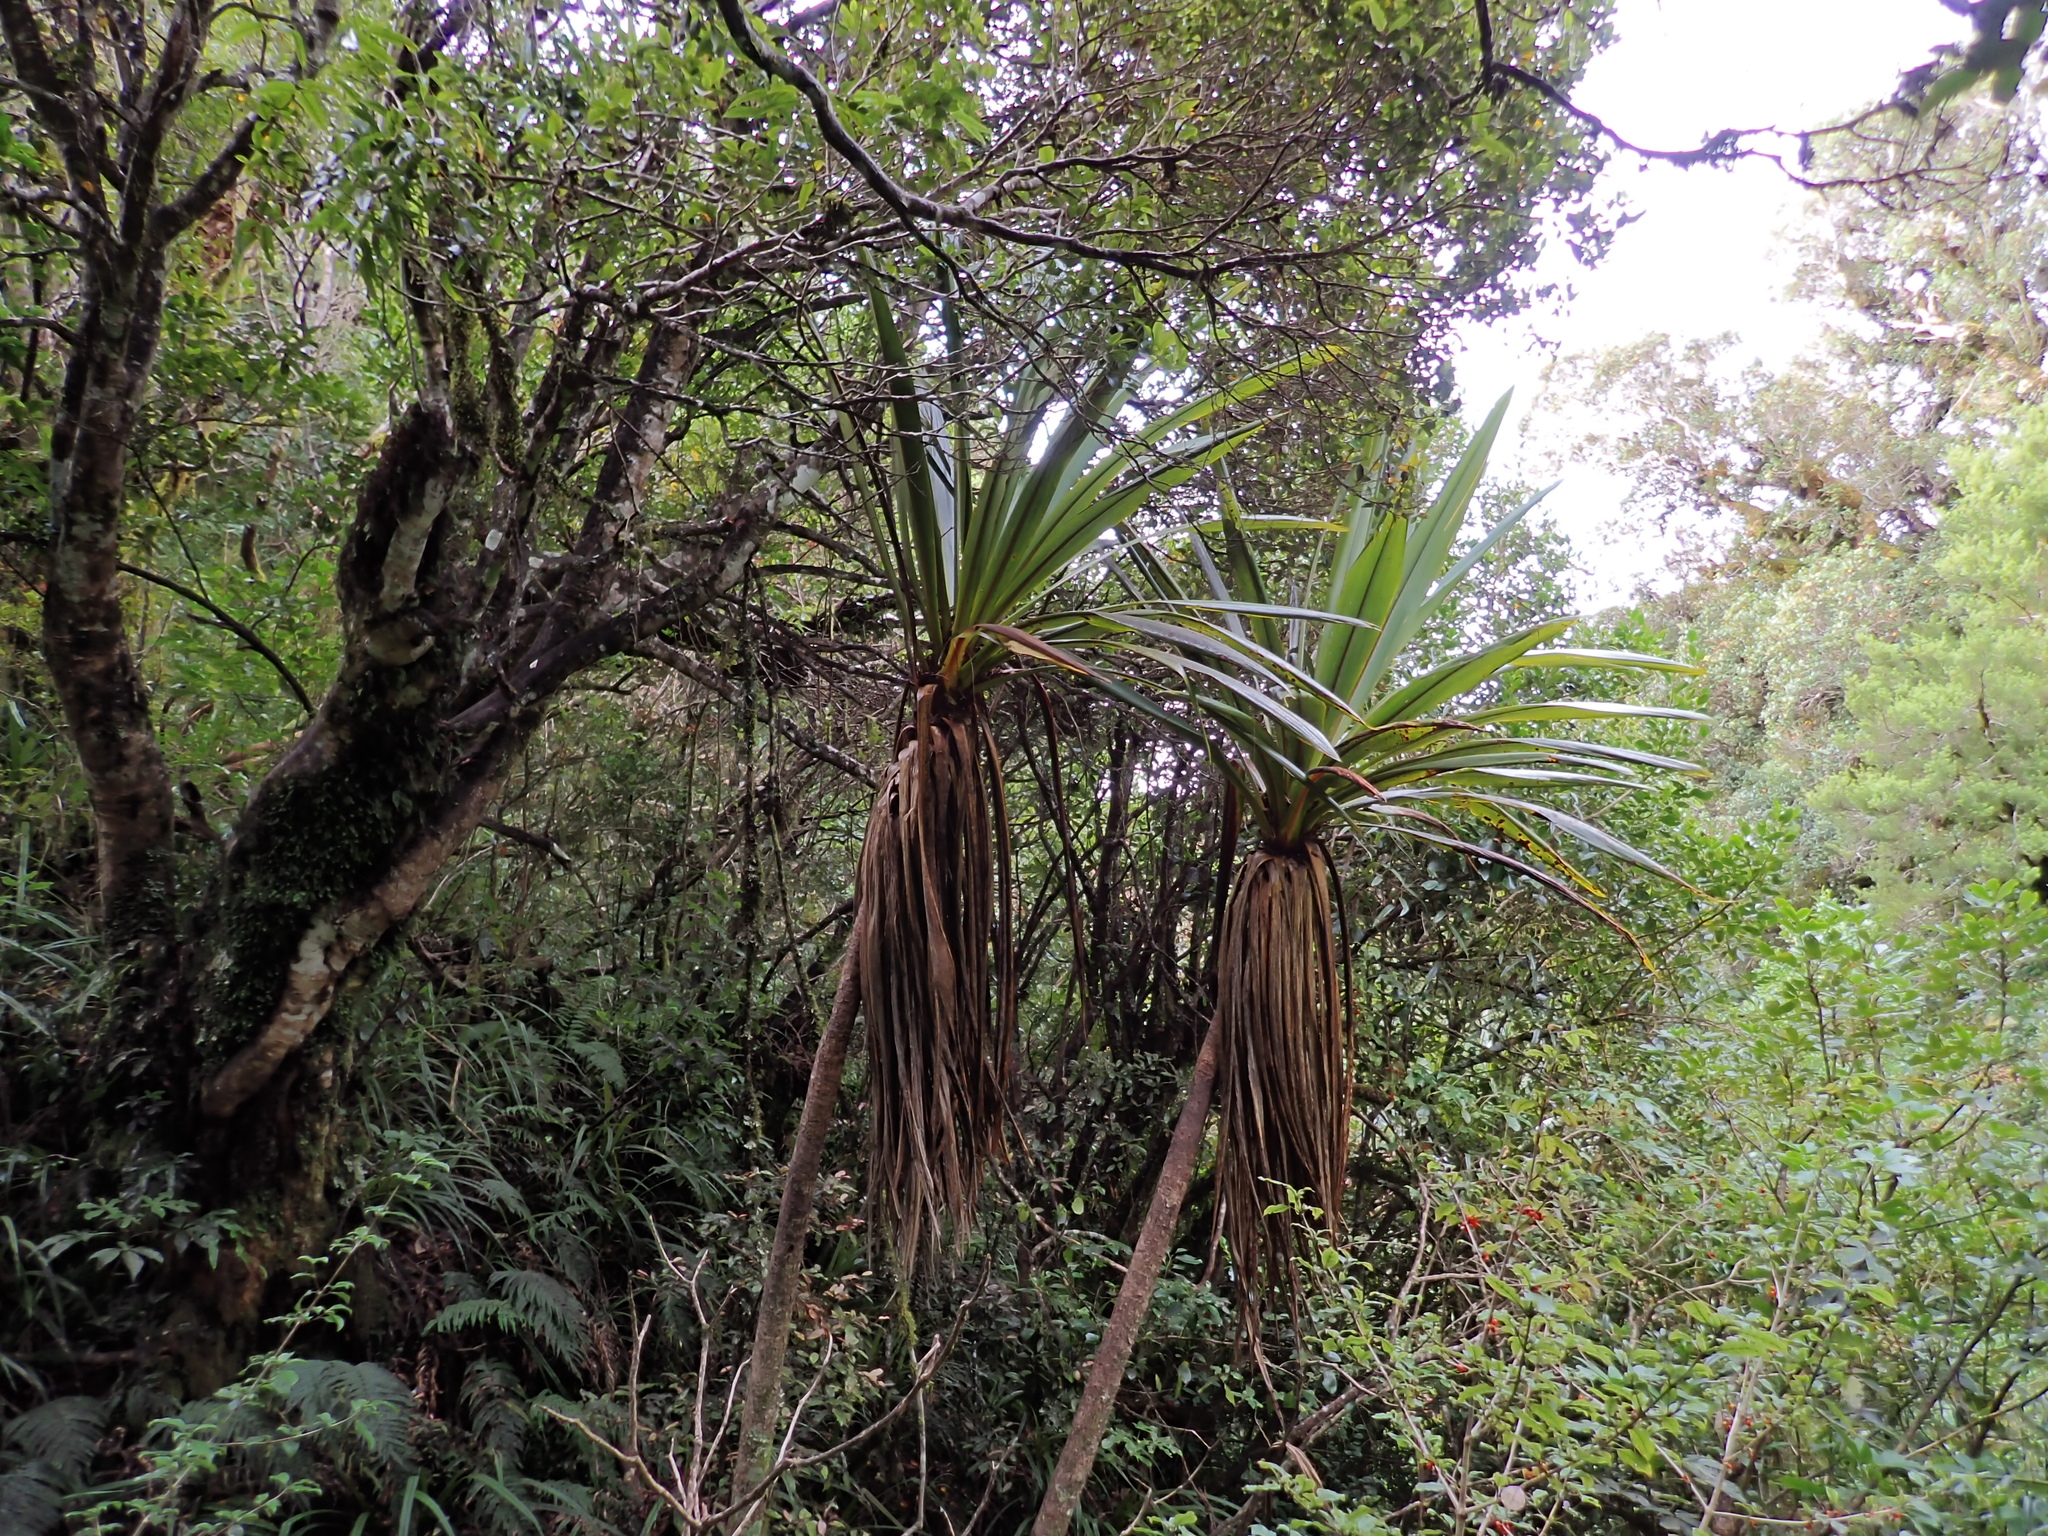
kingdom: Plantae
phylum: Tracheophyta
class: Liliopsida
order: Asparagales
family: Asparagaceae
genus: Cordyline
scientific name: Cordyline indivisa
